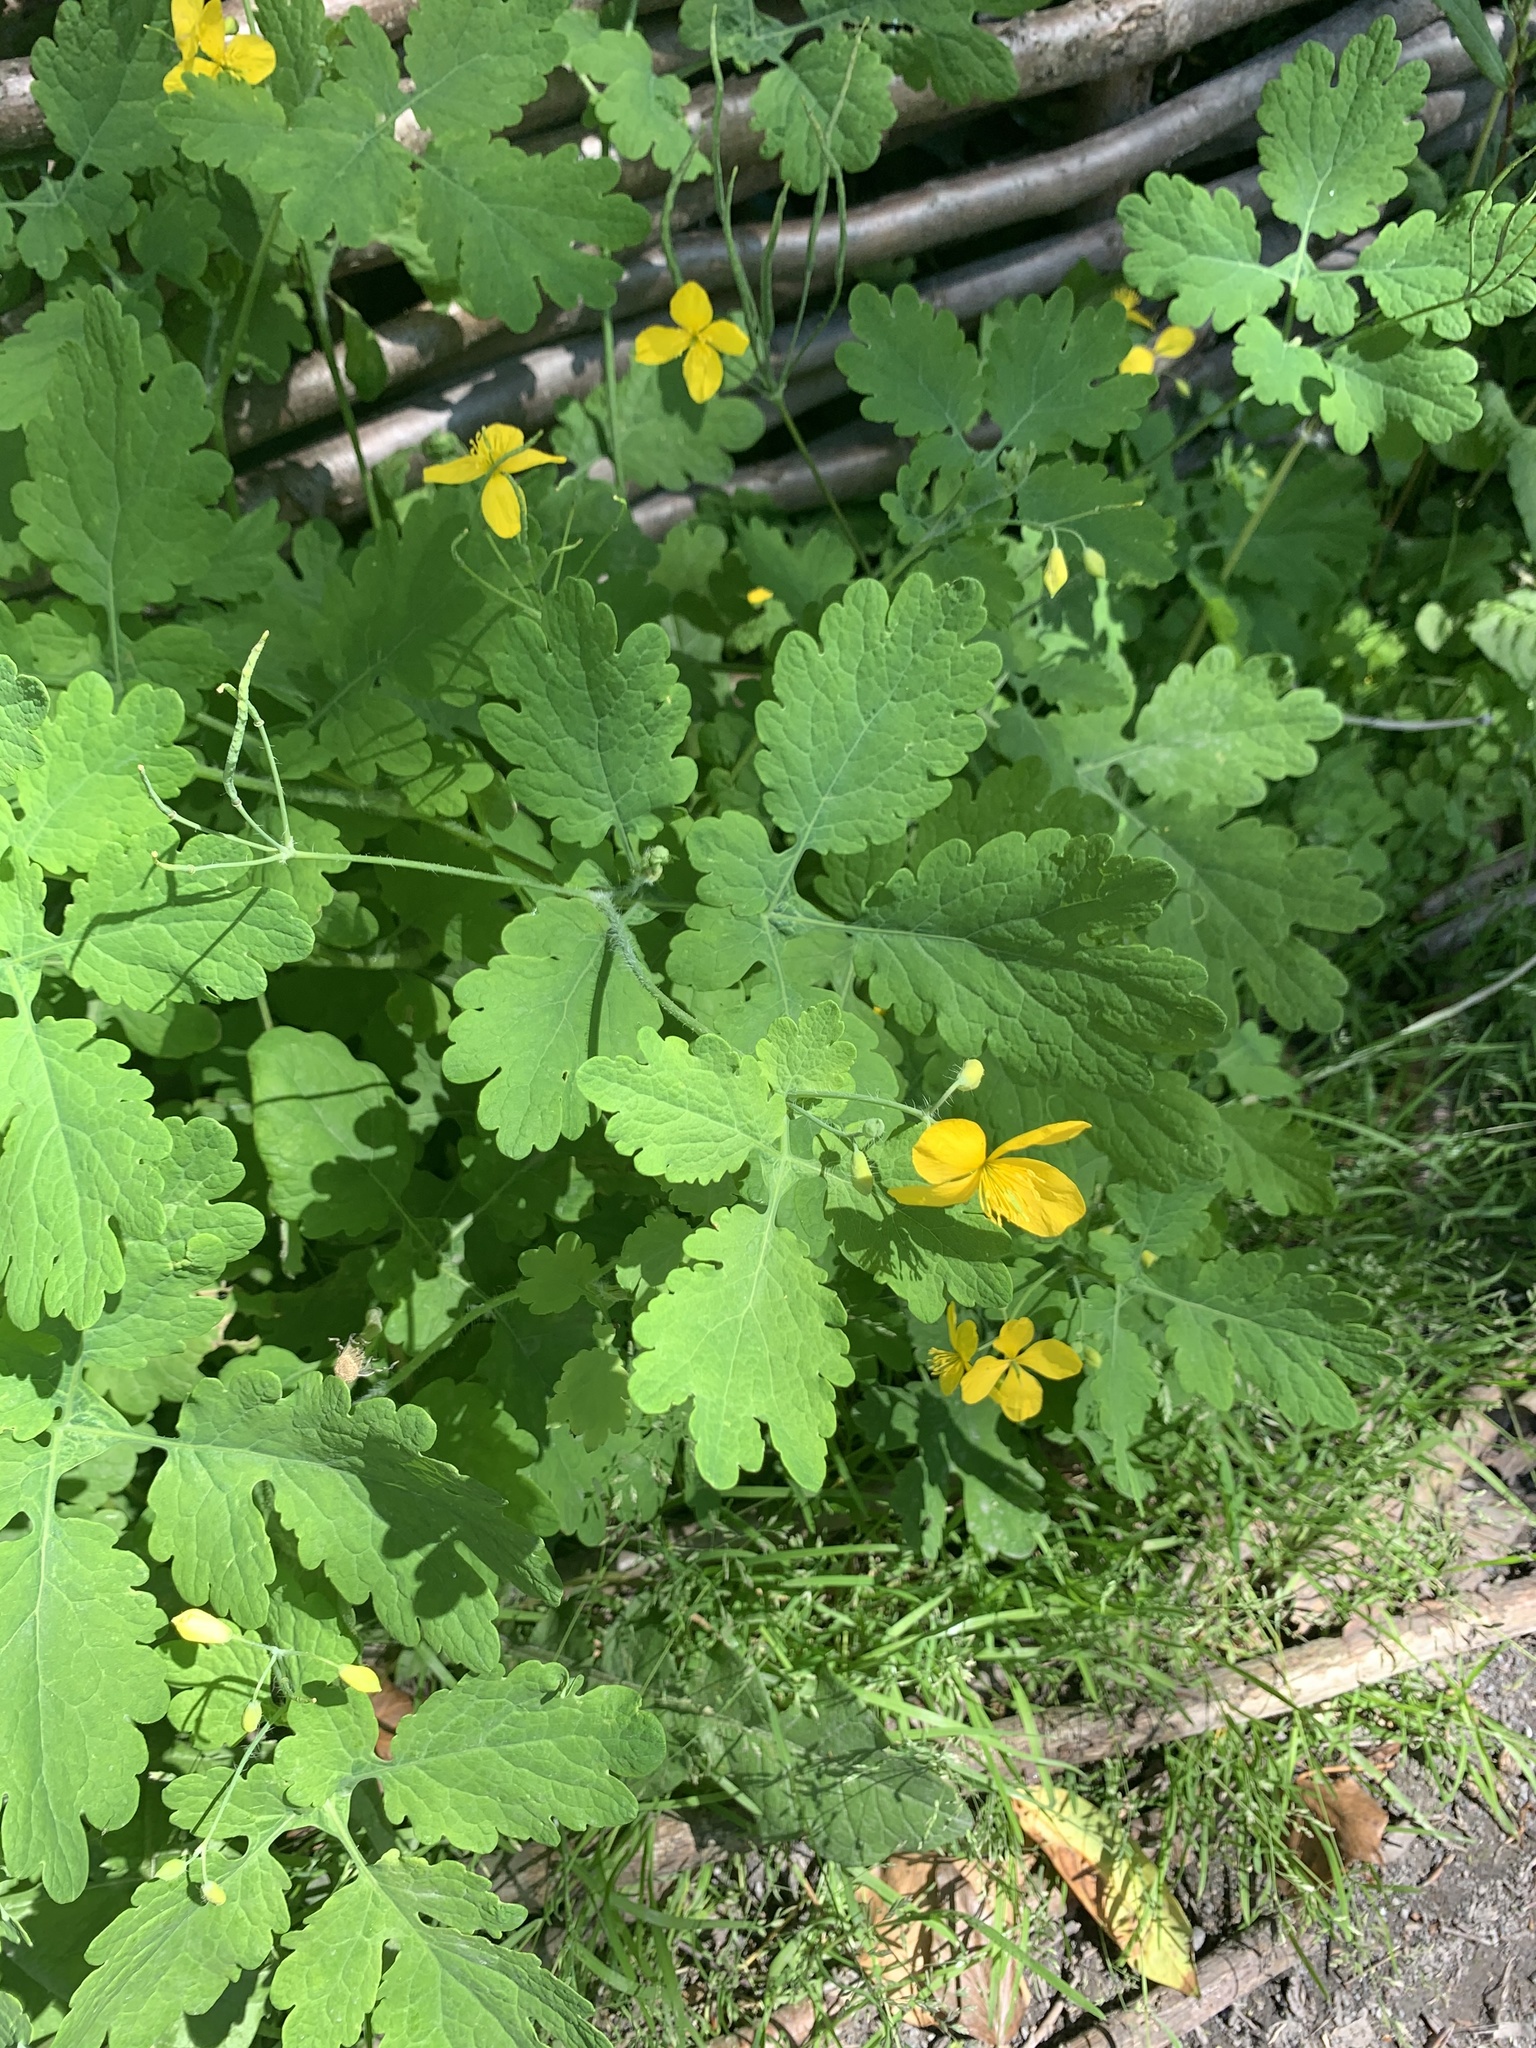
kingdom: Plantae
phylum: Tracheophyta
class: Magnoliopsida
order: Ranunculales
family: Papaveraceae
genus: Chelidonium
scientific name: Chelidonium majus
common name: Greater celandine
